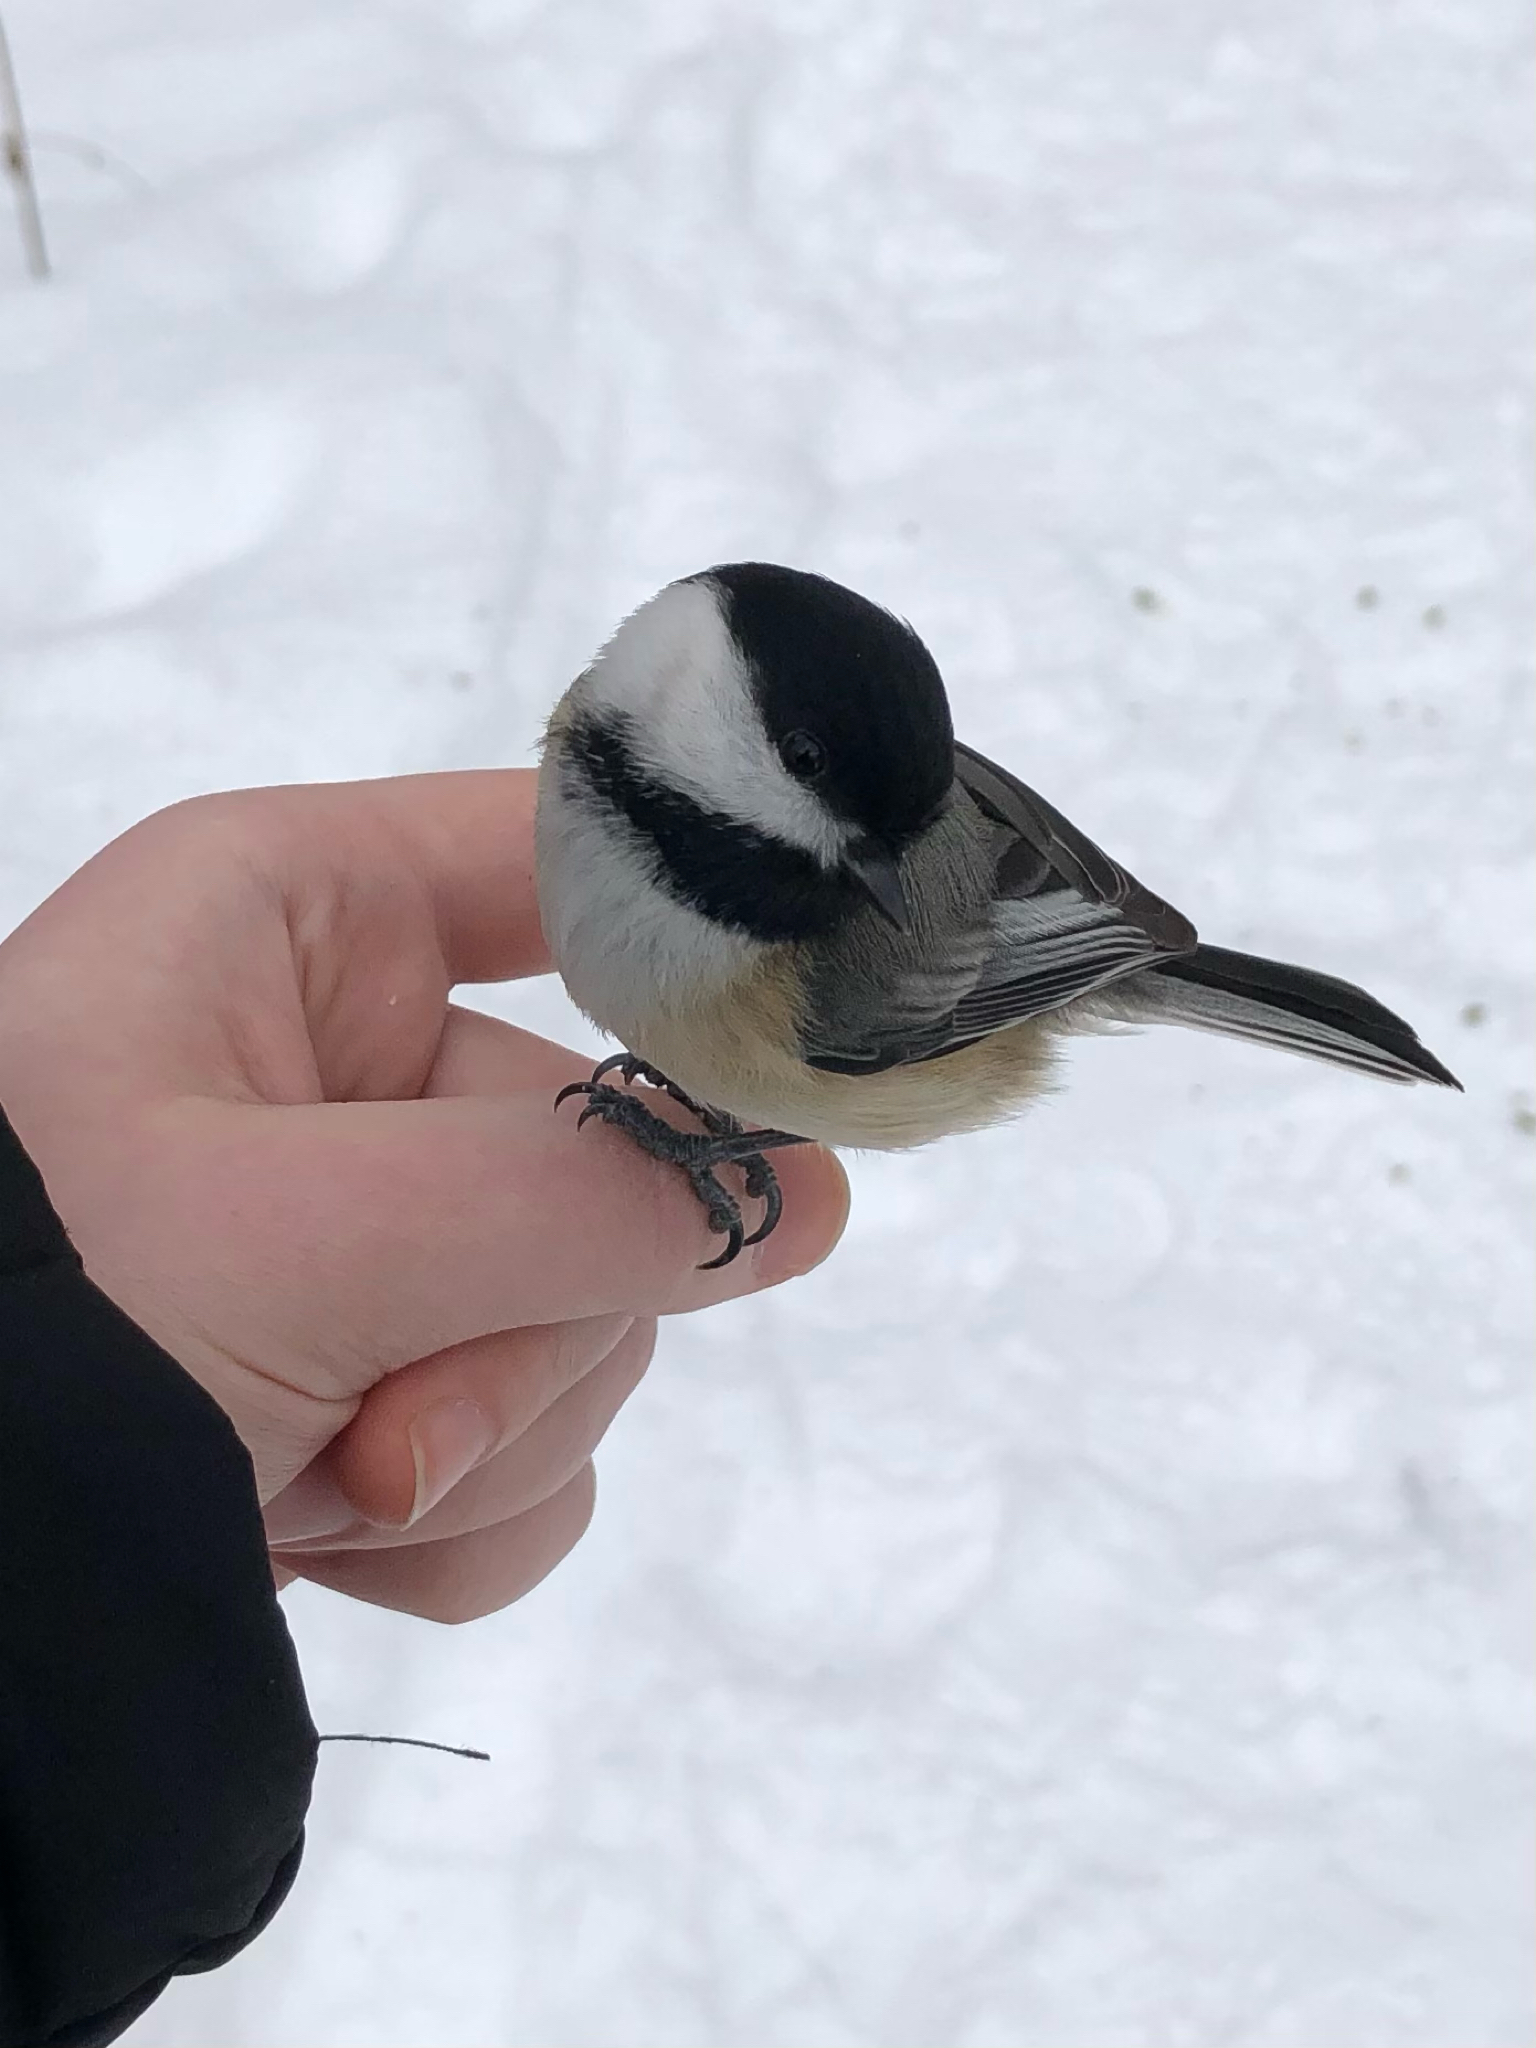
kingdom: Animalia
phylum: Chordata
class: Aves
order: Passeriformes
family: Paridae
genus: Poecile
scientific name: Poecile atricapillus
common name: Black-capped chickadee
